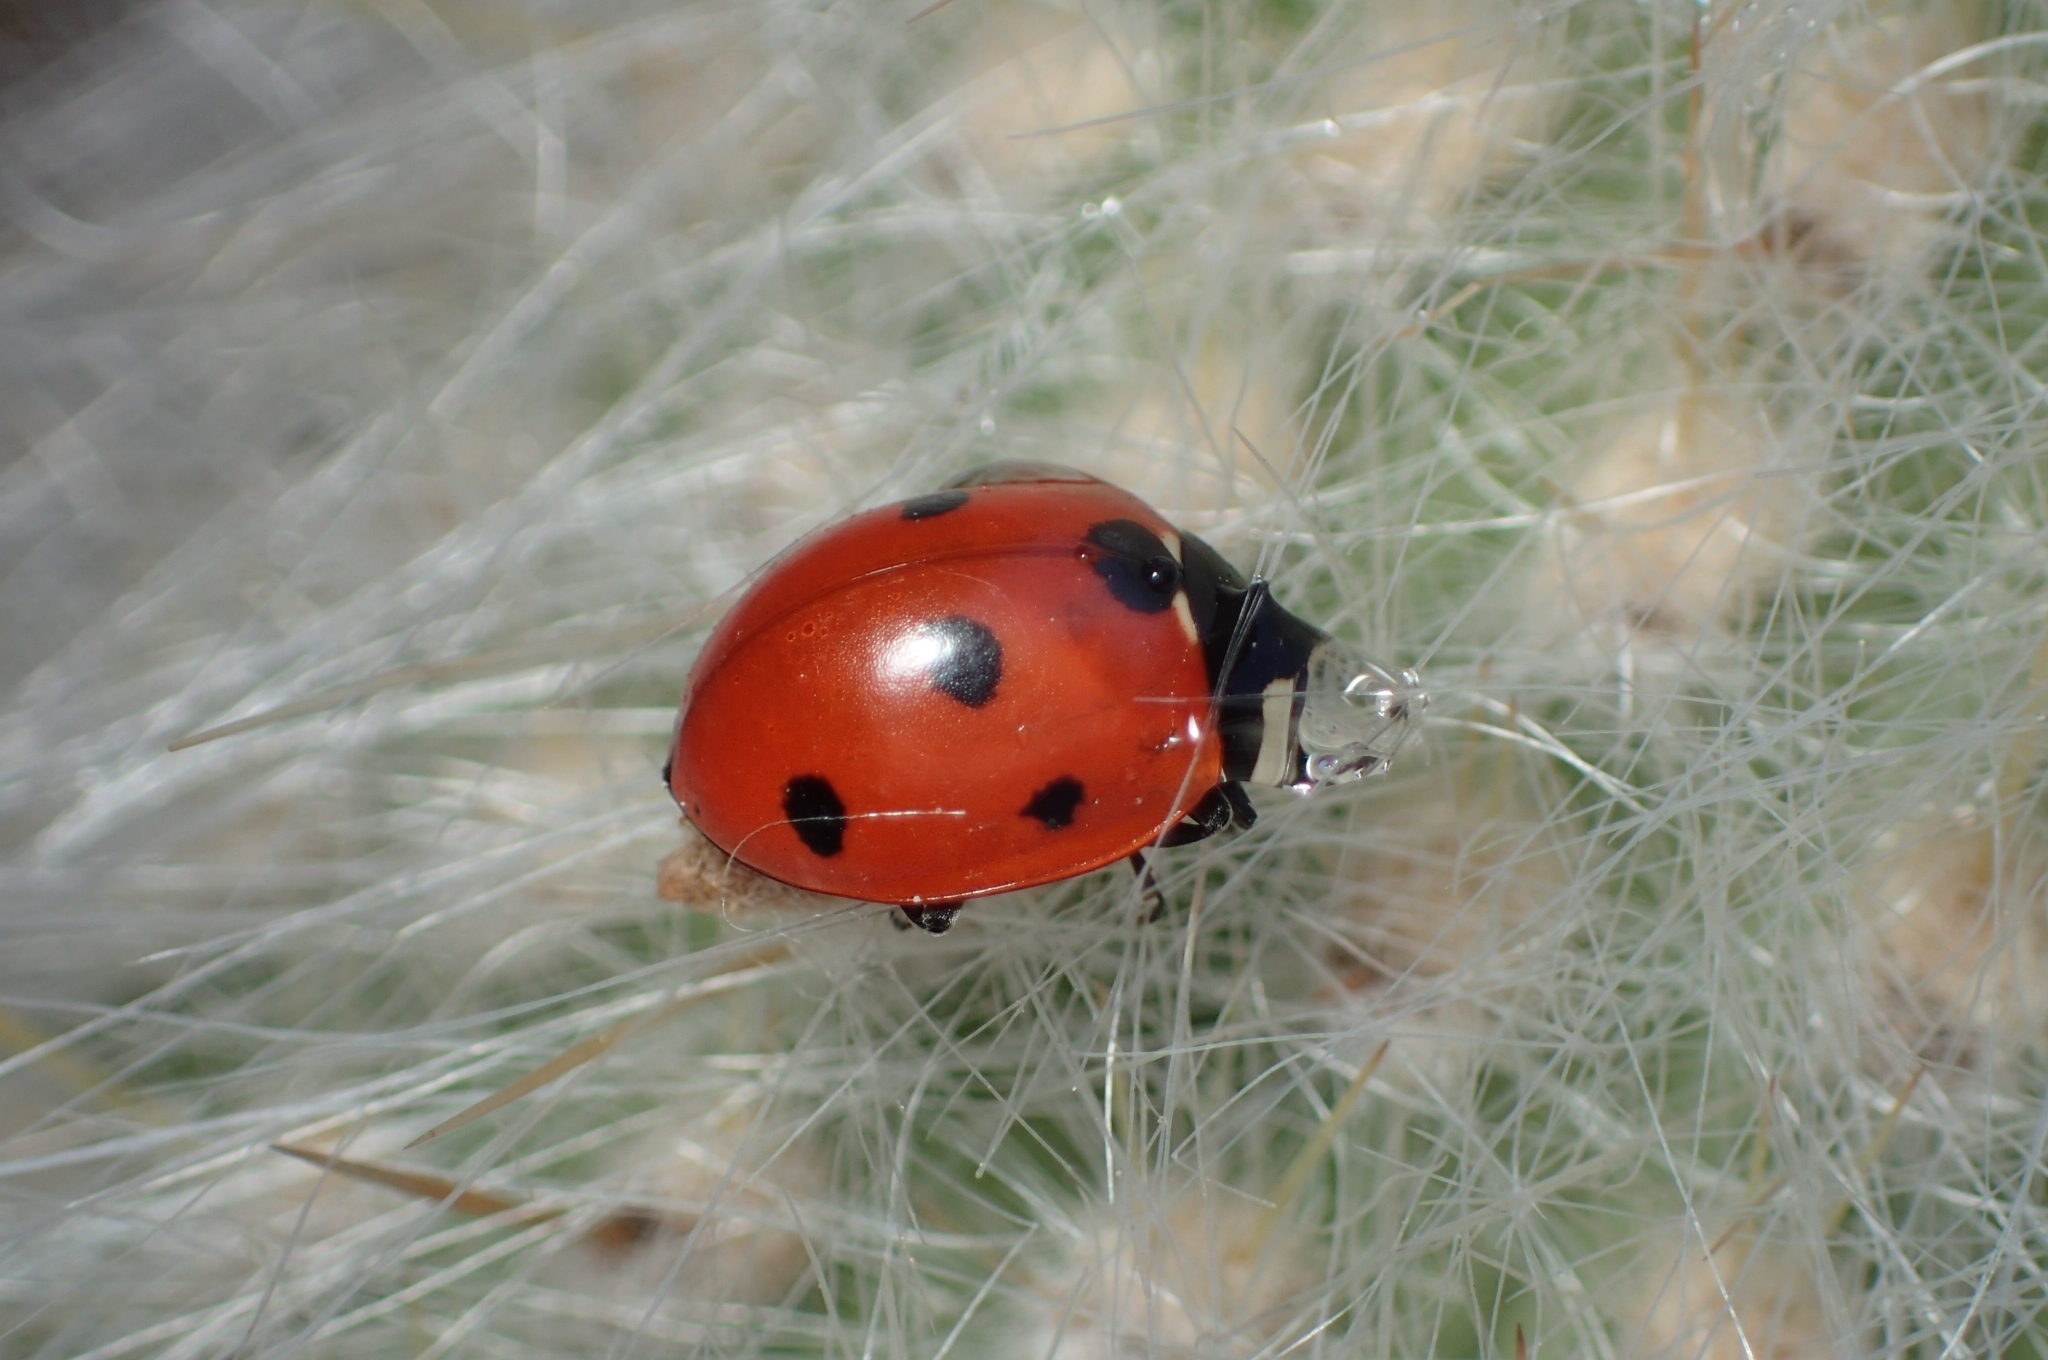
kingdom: Animalia
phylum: Arthropoda
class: Insecta
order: Coleoptera
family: Coccinellidae
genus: Coccinella
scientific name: Coccinella septempunctata
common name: Sevenspotted lady beetle
